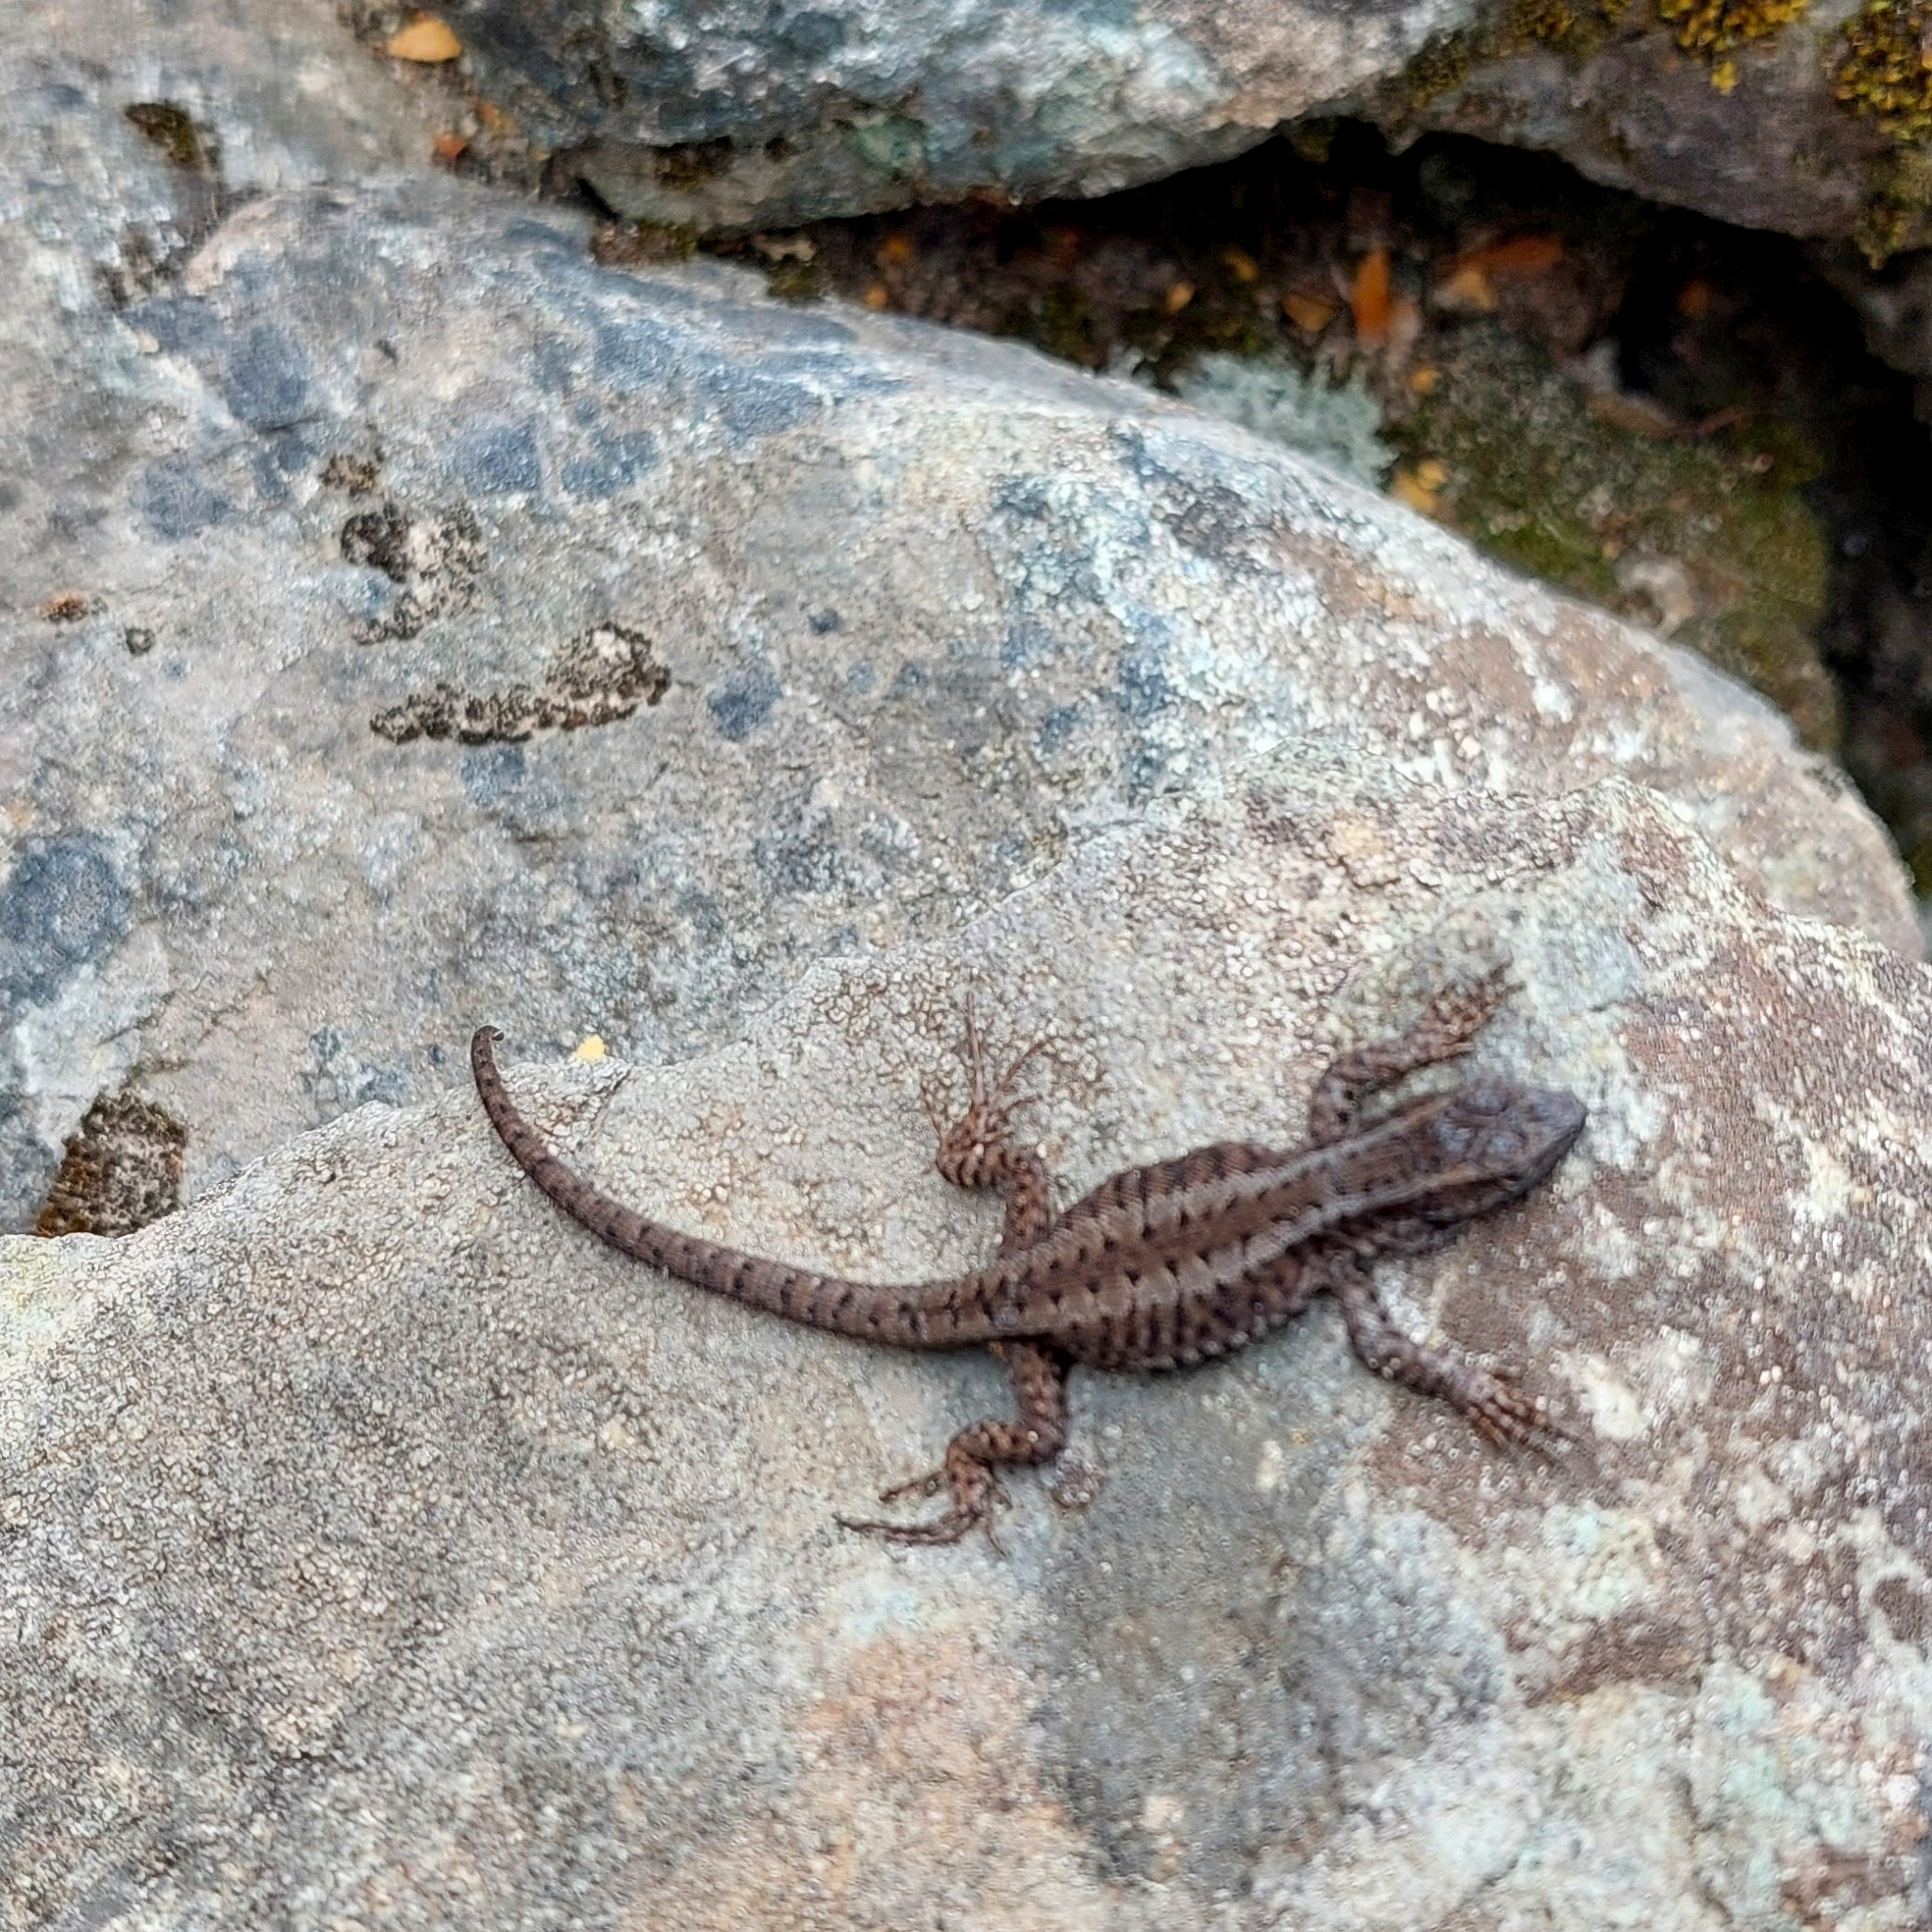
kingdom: Animalia
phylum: Chordata
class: Squamata
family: Liolaemidae
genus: Liolaemus
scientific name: Liolaemus elongatus
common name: Elongate tree iguana
